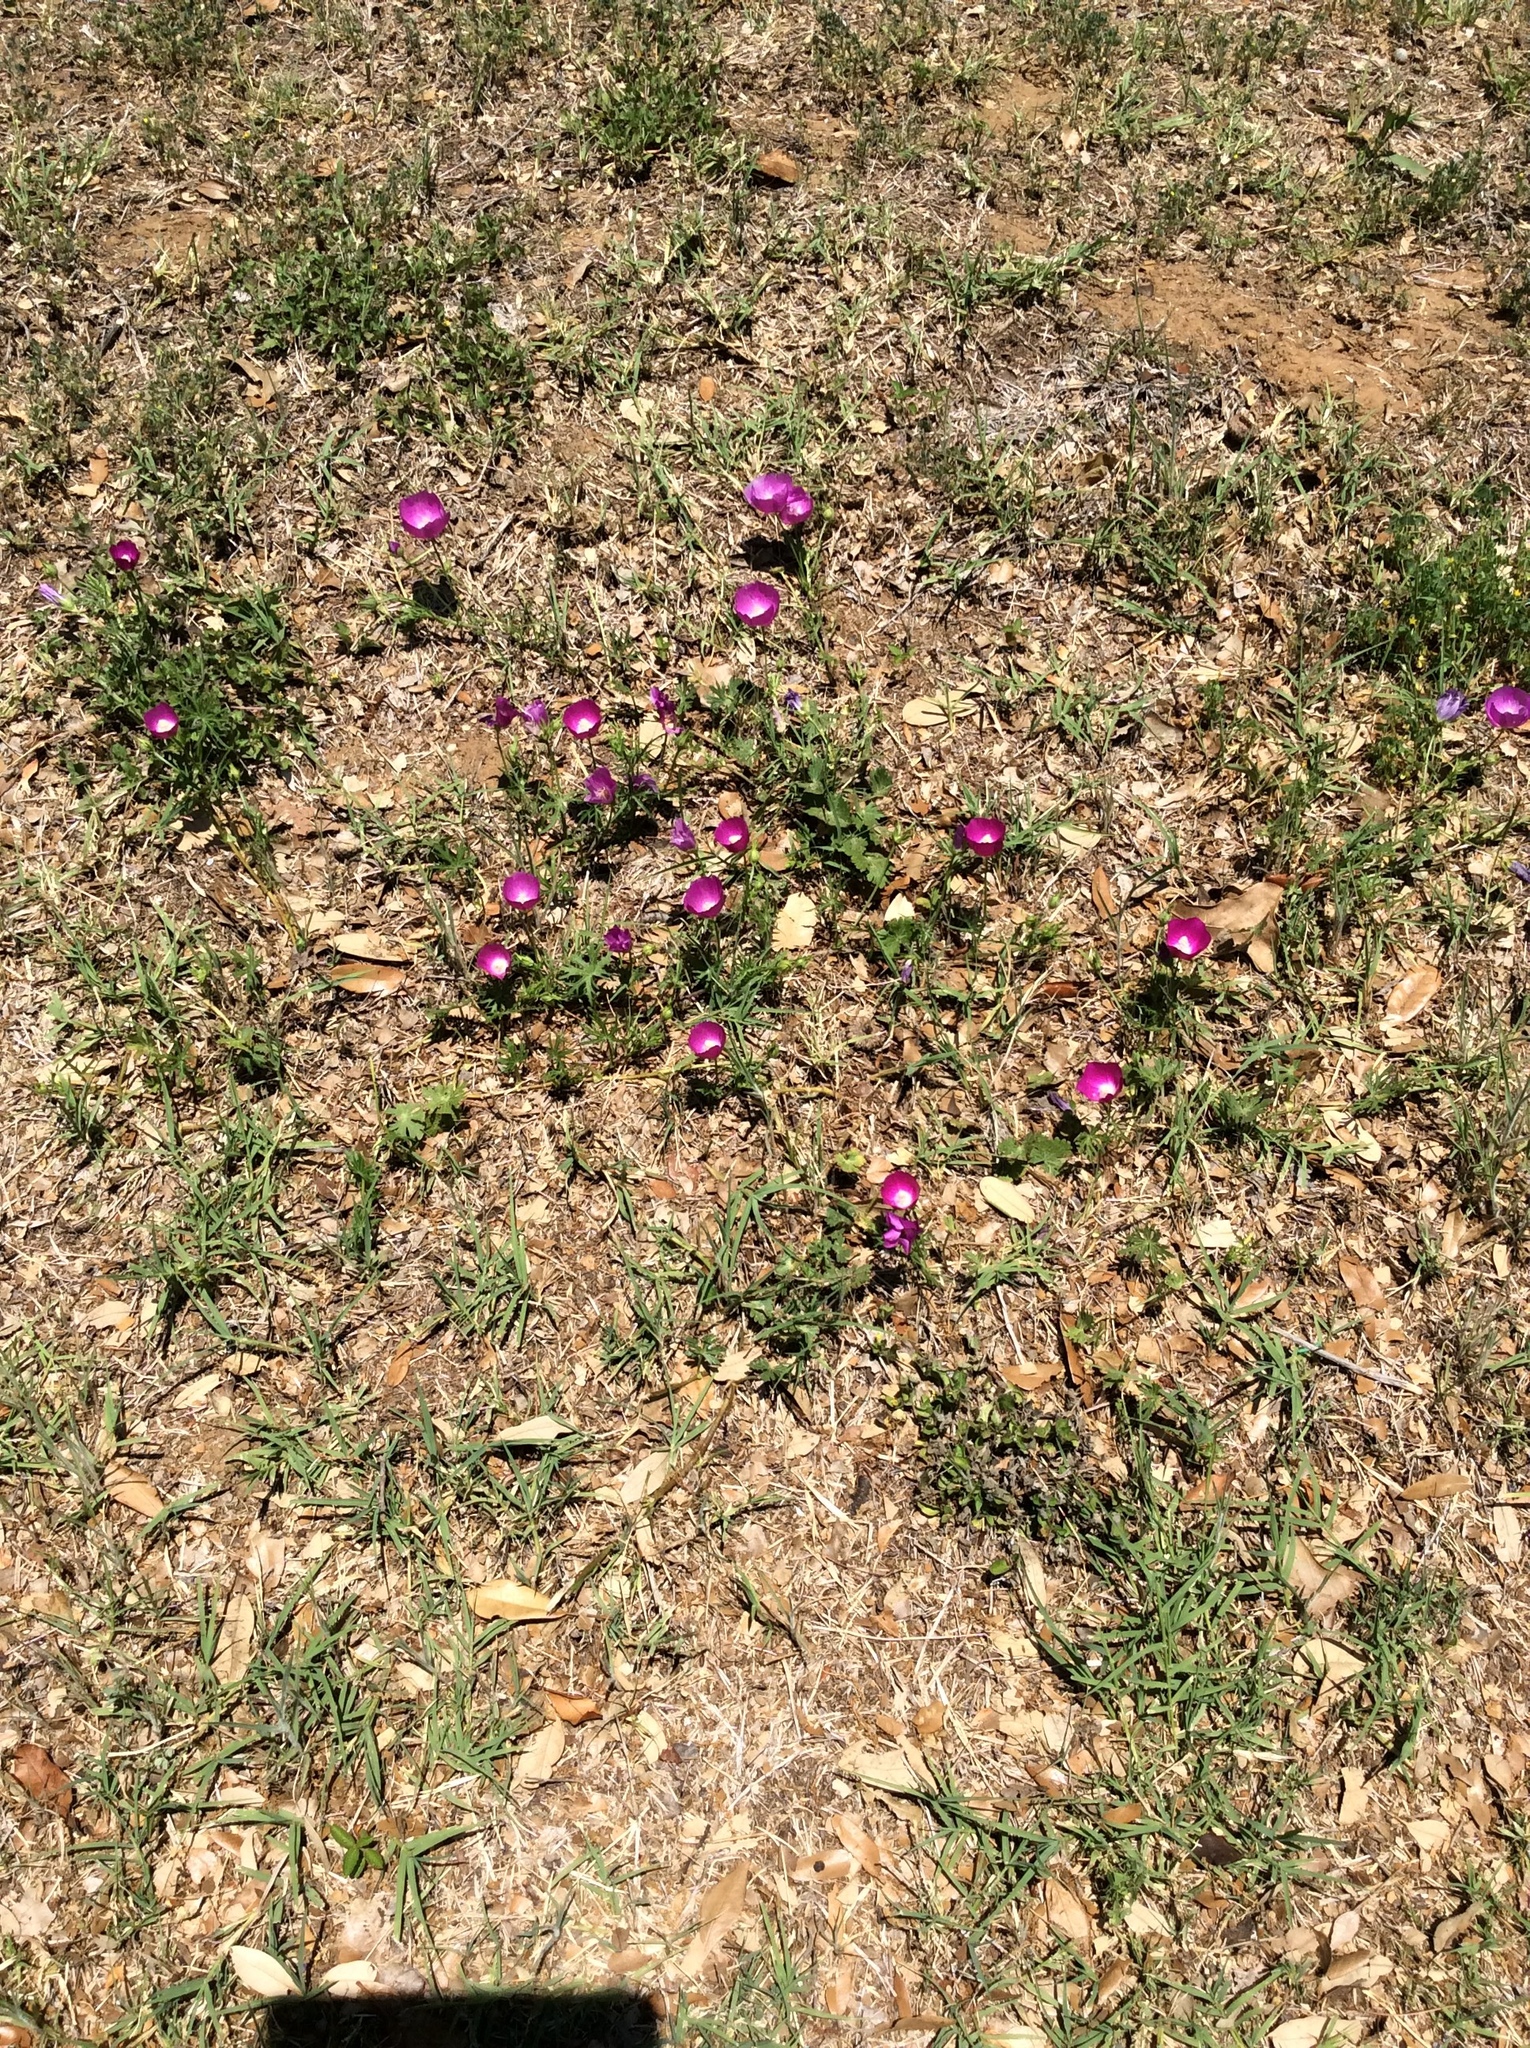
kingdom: Plantae
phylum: Tracheophyta
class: Magnoliopsida
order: Malvales
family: Malvaceae
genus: Callirhoe
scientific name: Callirhoe involucrata
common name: Purple poppy-mallow
